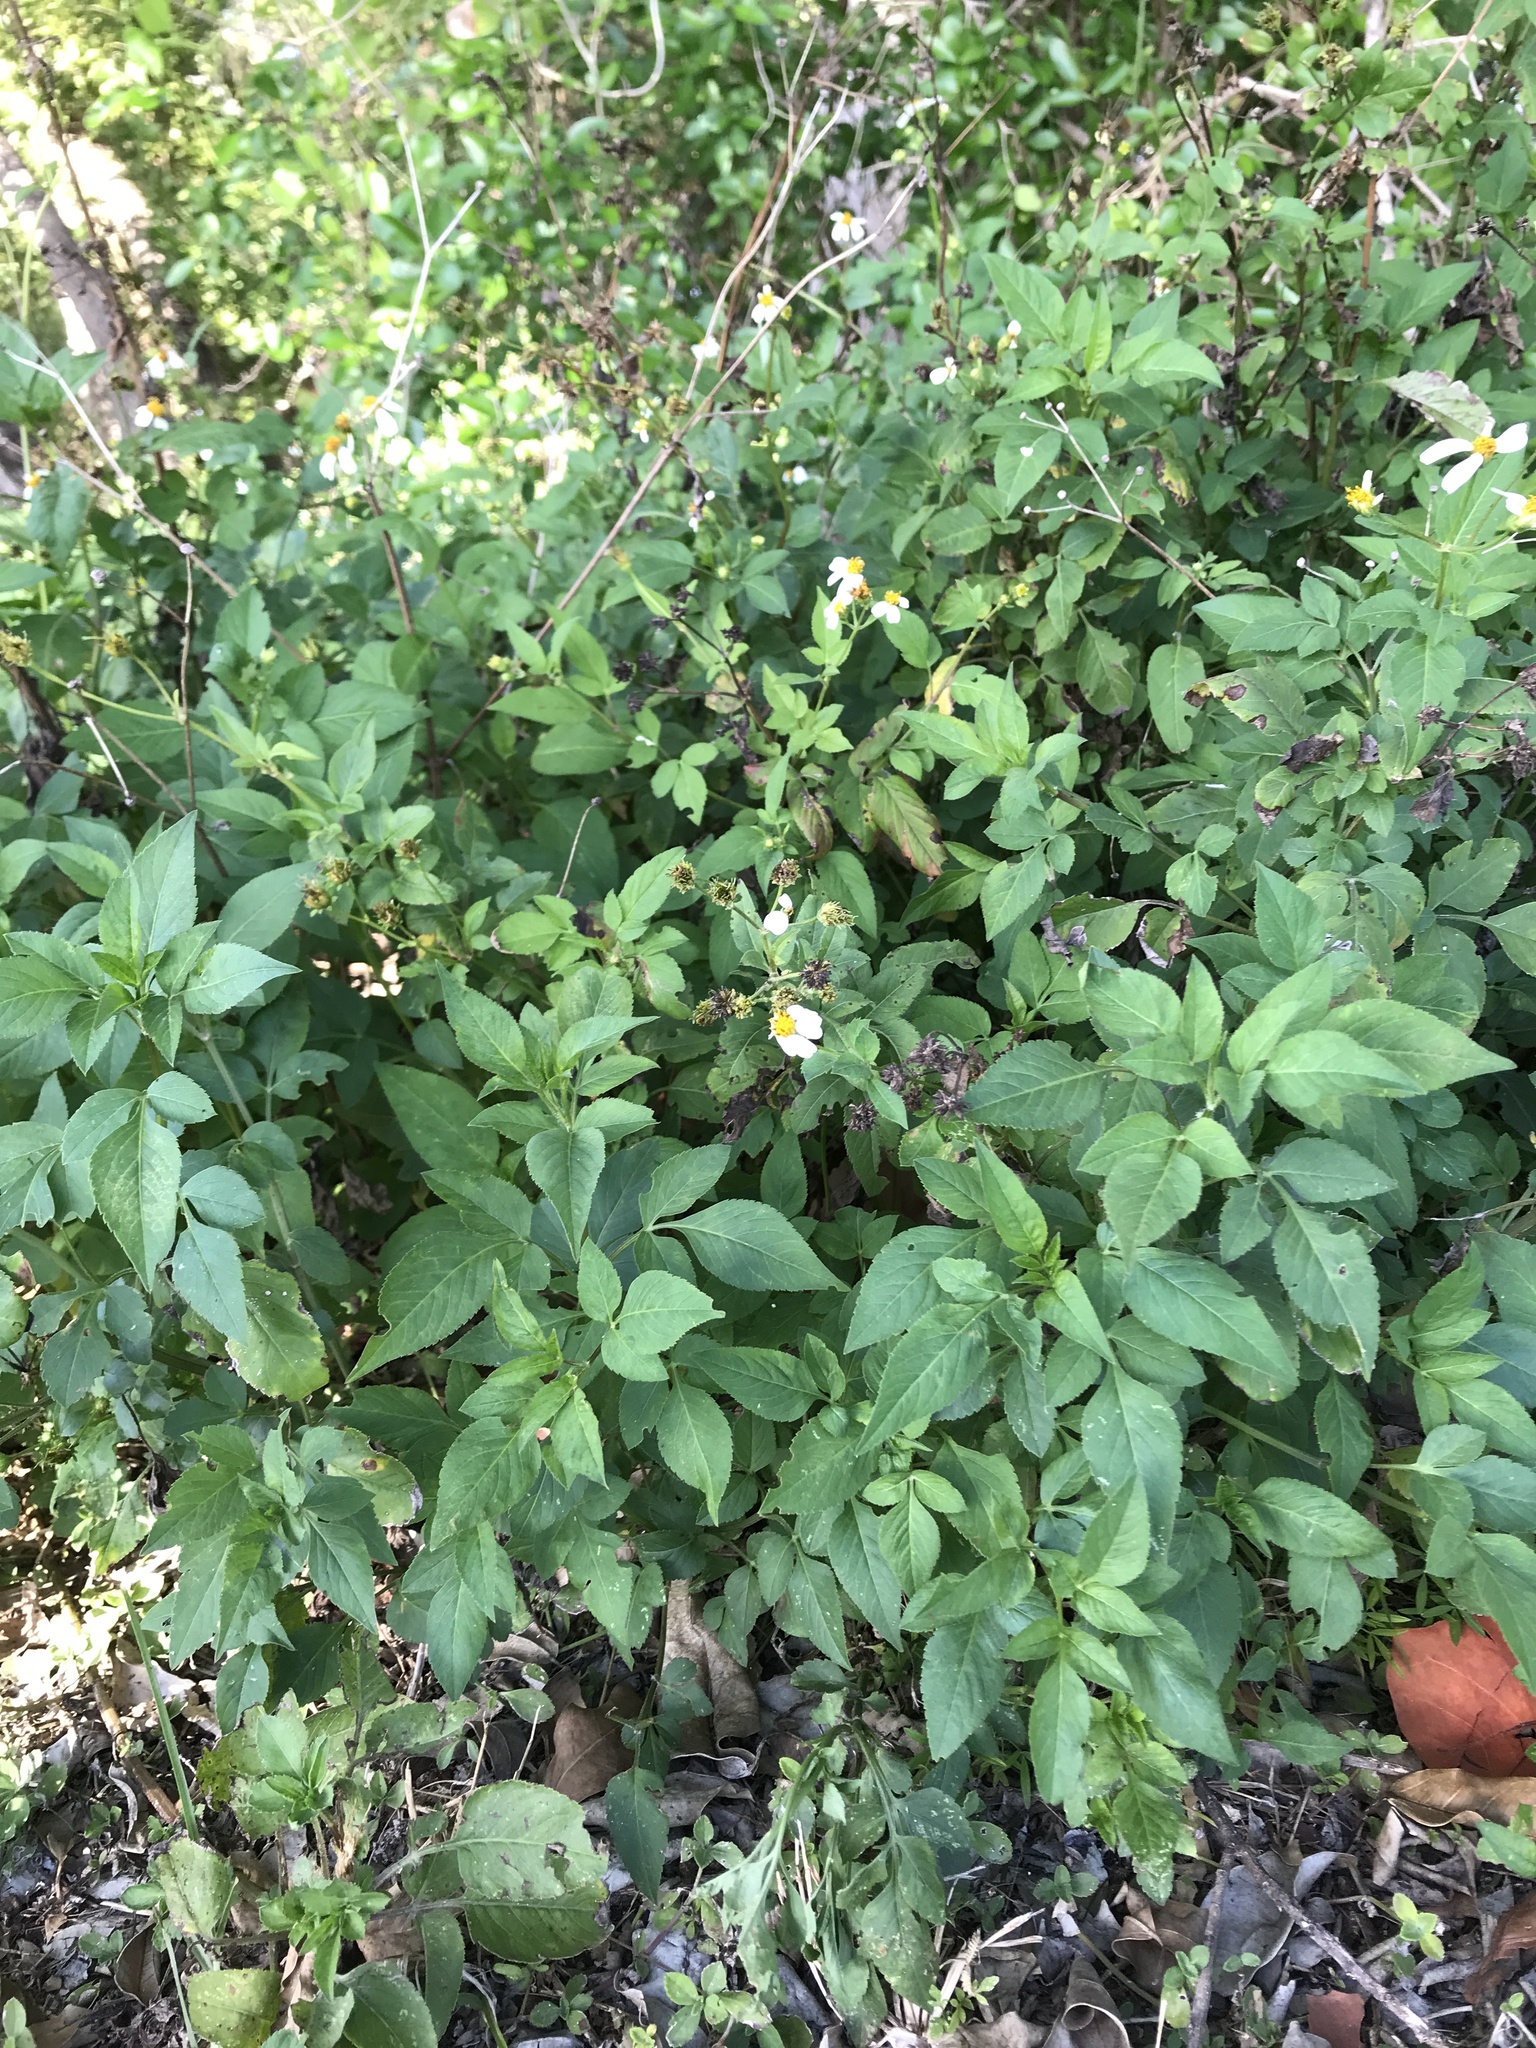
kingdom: Plantae
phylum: Tracheophyta
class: Magnoliopsida
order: Asterales
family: Asteraceae
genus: Bidens
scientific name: Bidens alba
